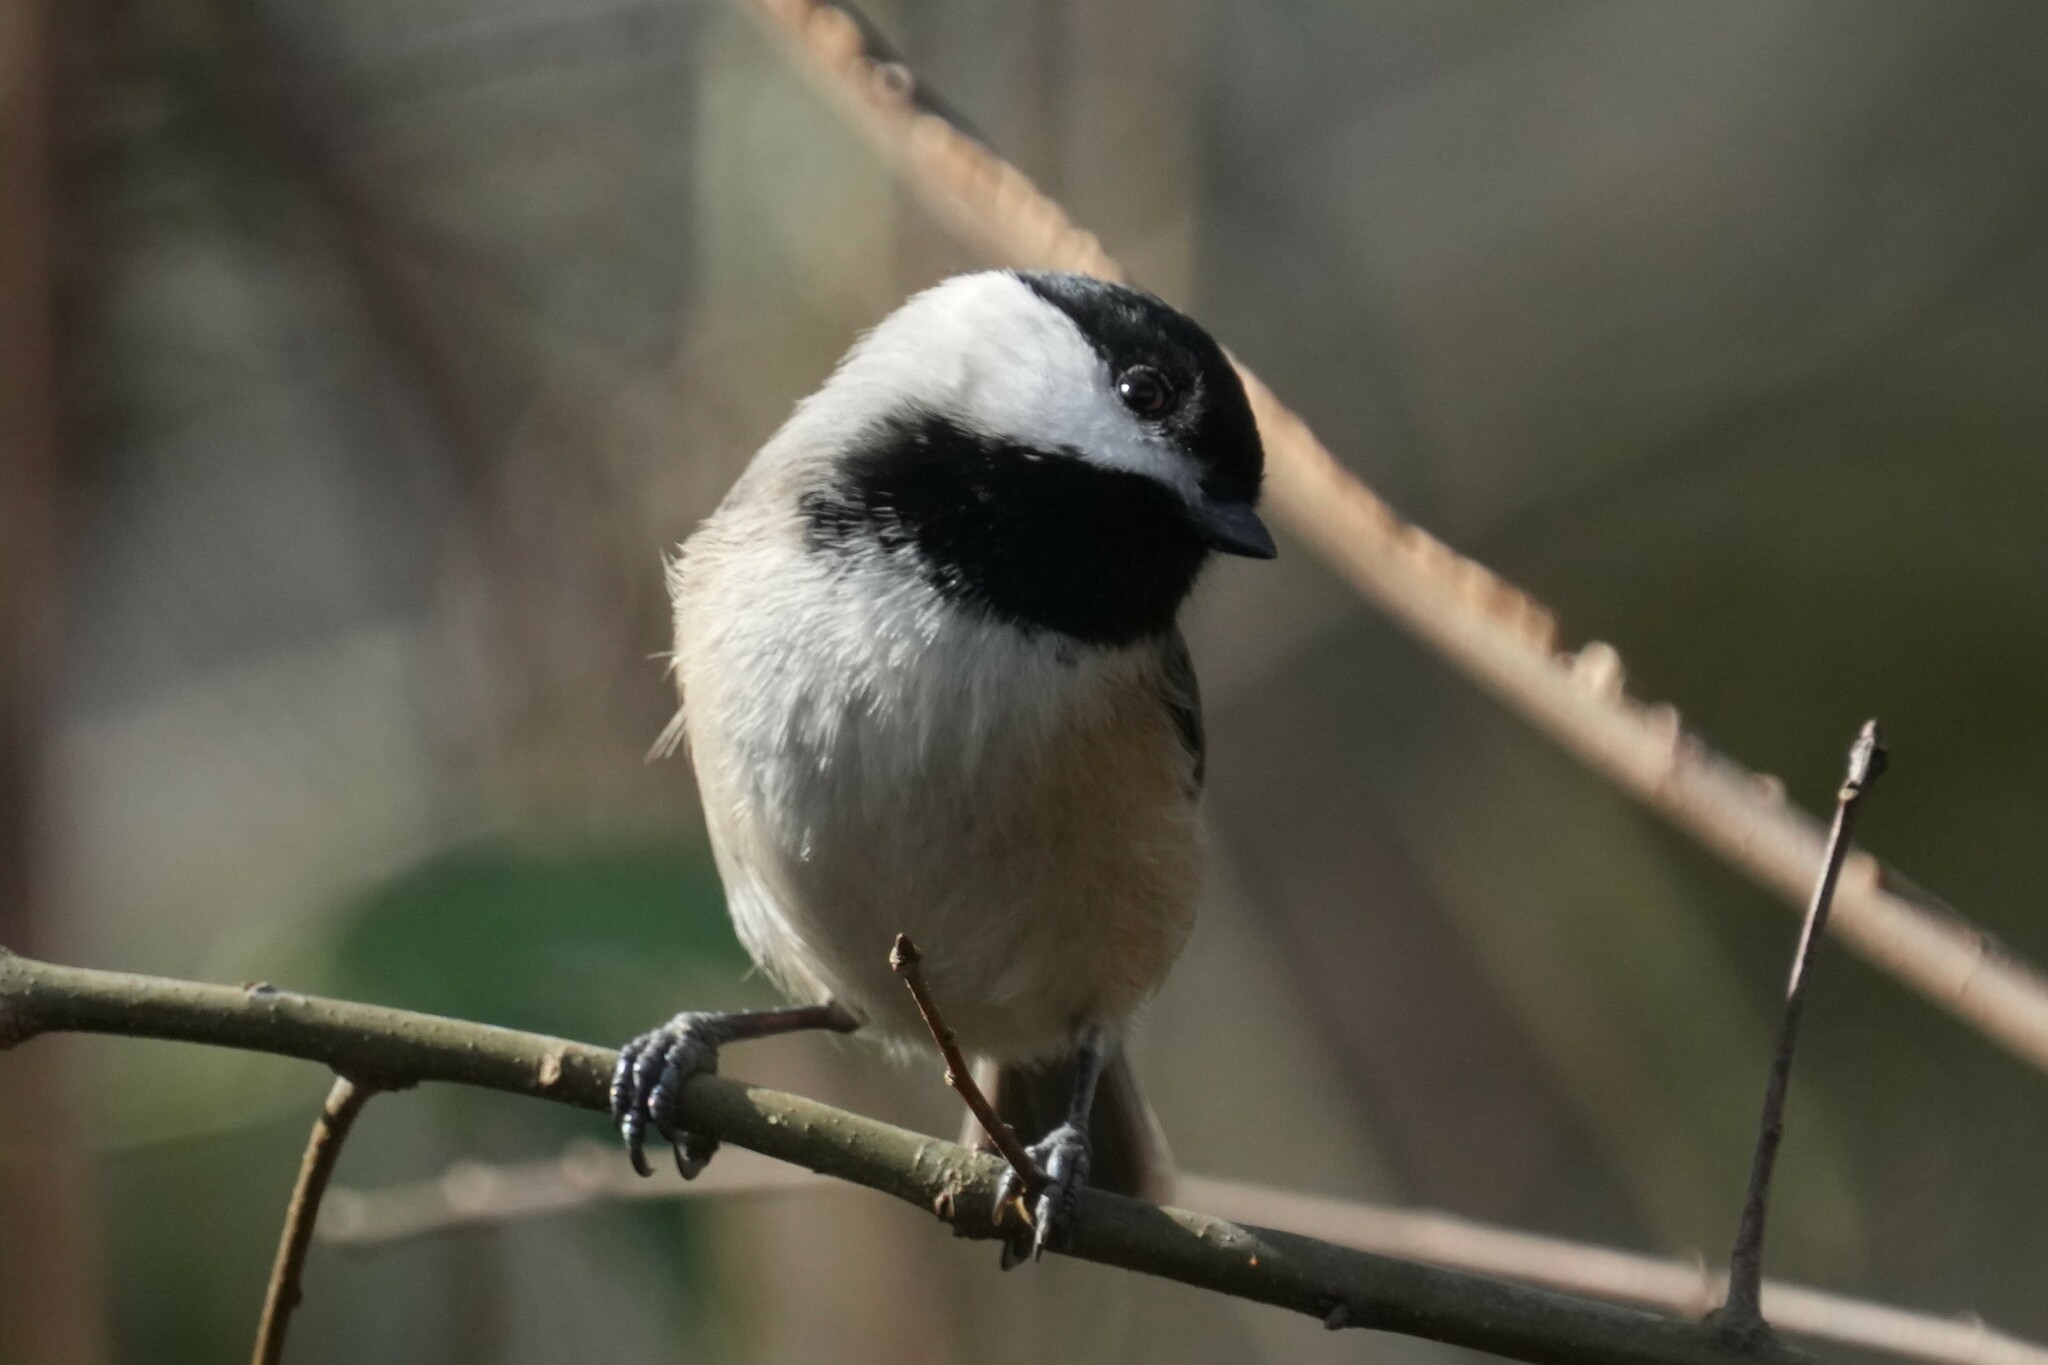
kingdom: Animalia
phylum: Chordata
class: Aves
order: Passeriformes
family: Paridae
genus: Poecile
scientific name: Poecile carolinensis
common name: Carolina chickadee
